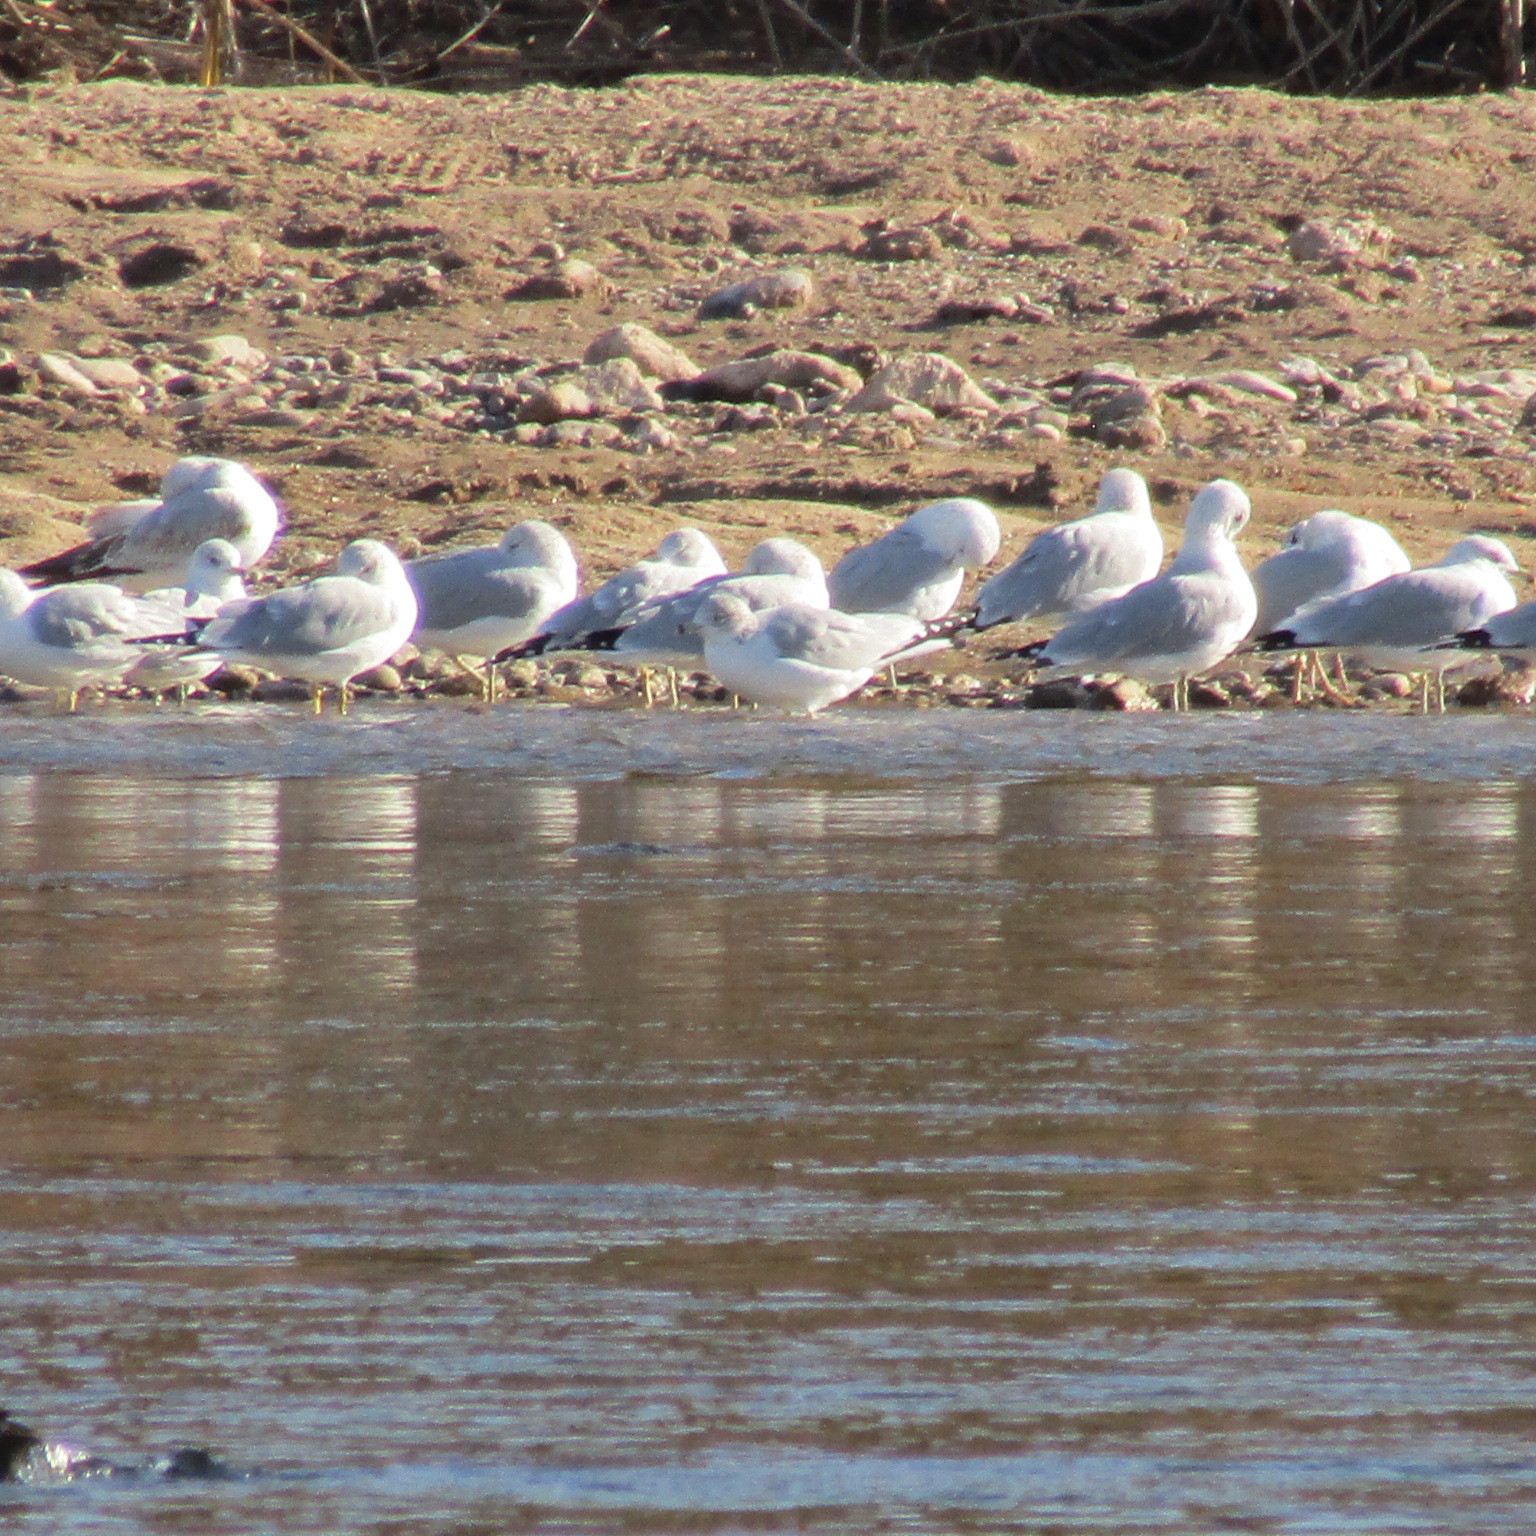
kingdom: Animalia
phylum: Chordata
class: Aves
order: Charadriiformes
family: Laridae
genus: Larus
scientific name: Larus delawarensis
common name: Ring-billed gull
